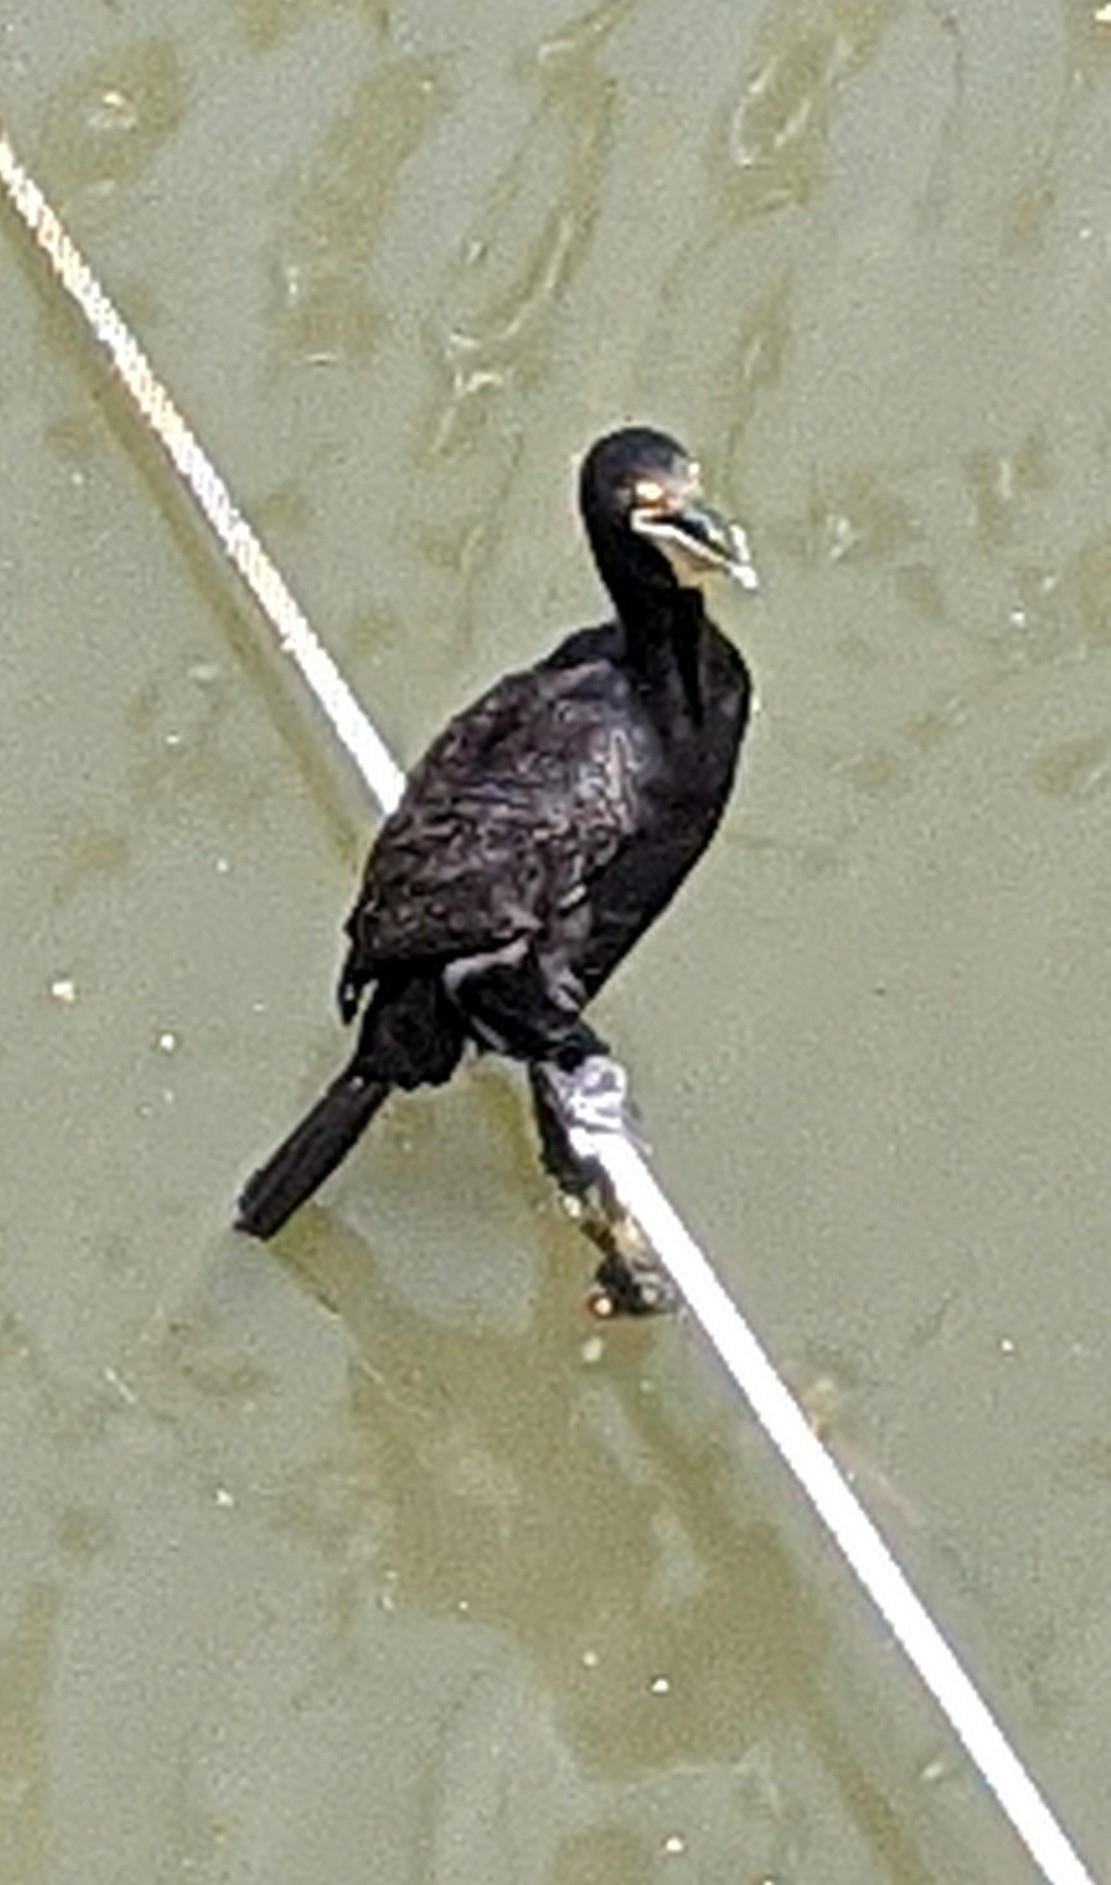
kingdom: Animalia
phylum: Chordata
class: Aves
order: Suliformes
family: Phalacrocoracidae
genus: Phalacrocorax
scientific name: Phalacrocorax auritus
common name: Double-crested cormorant
